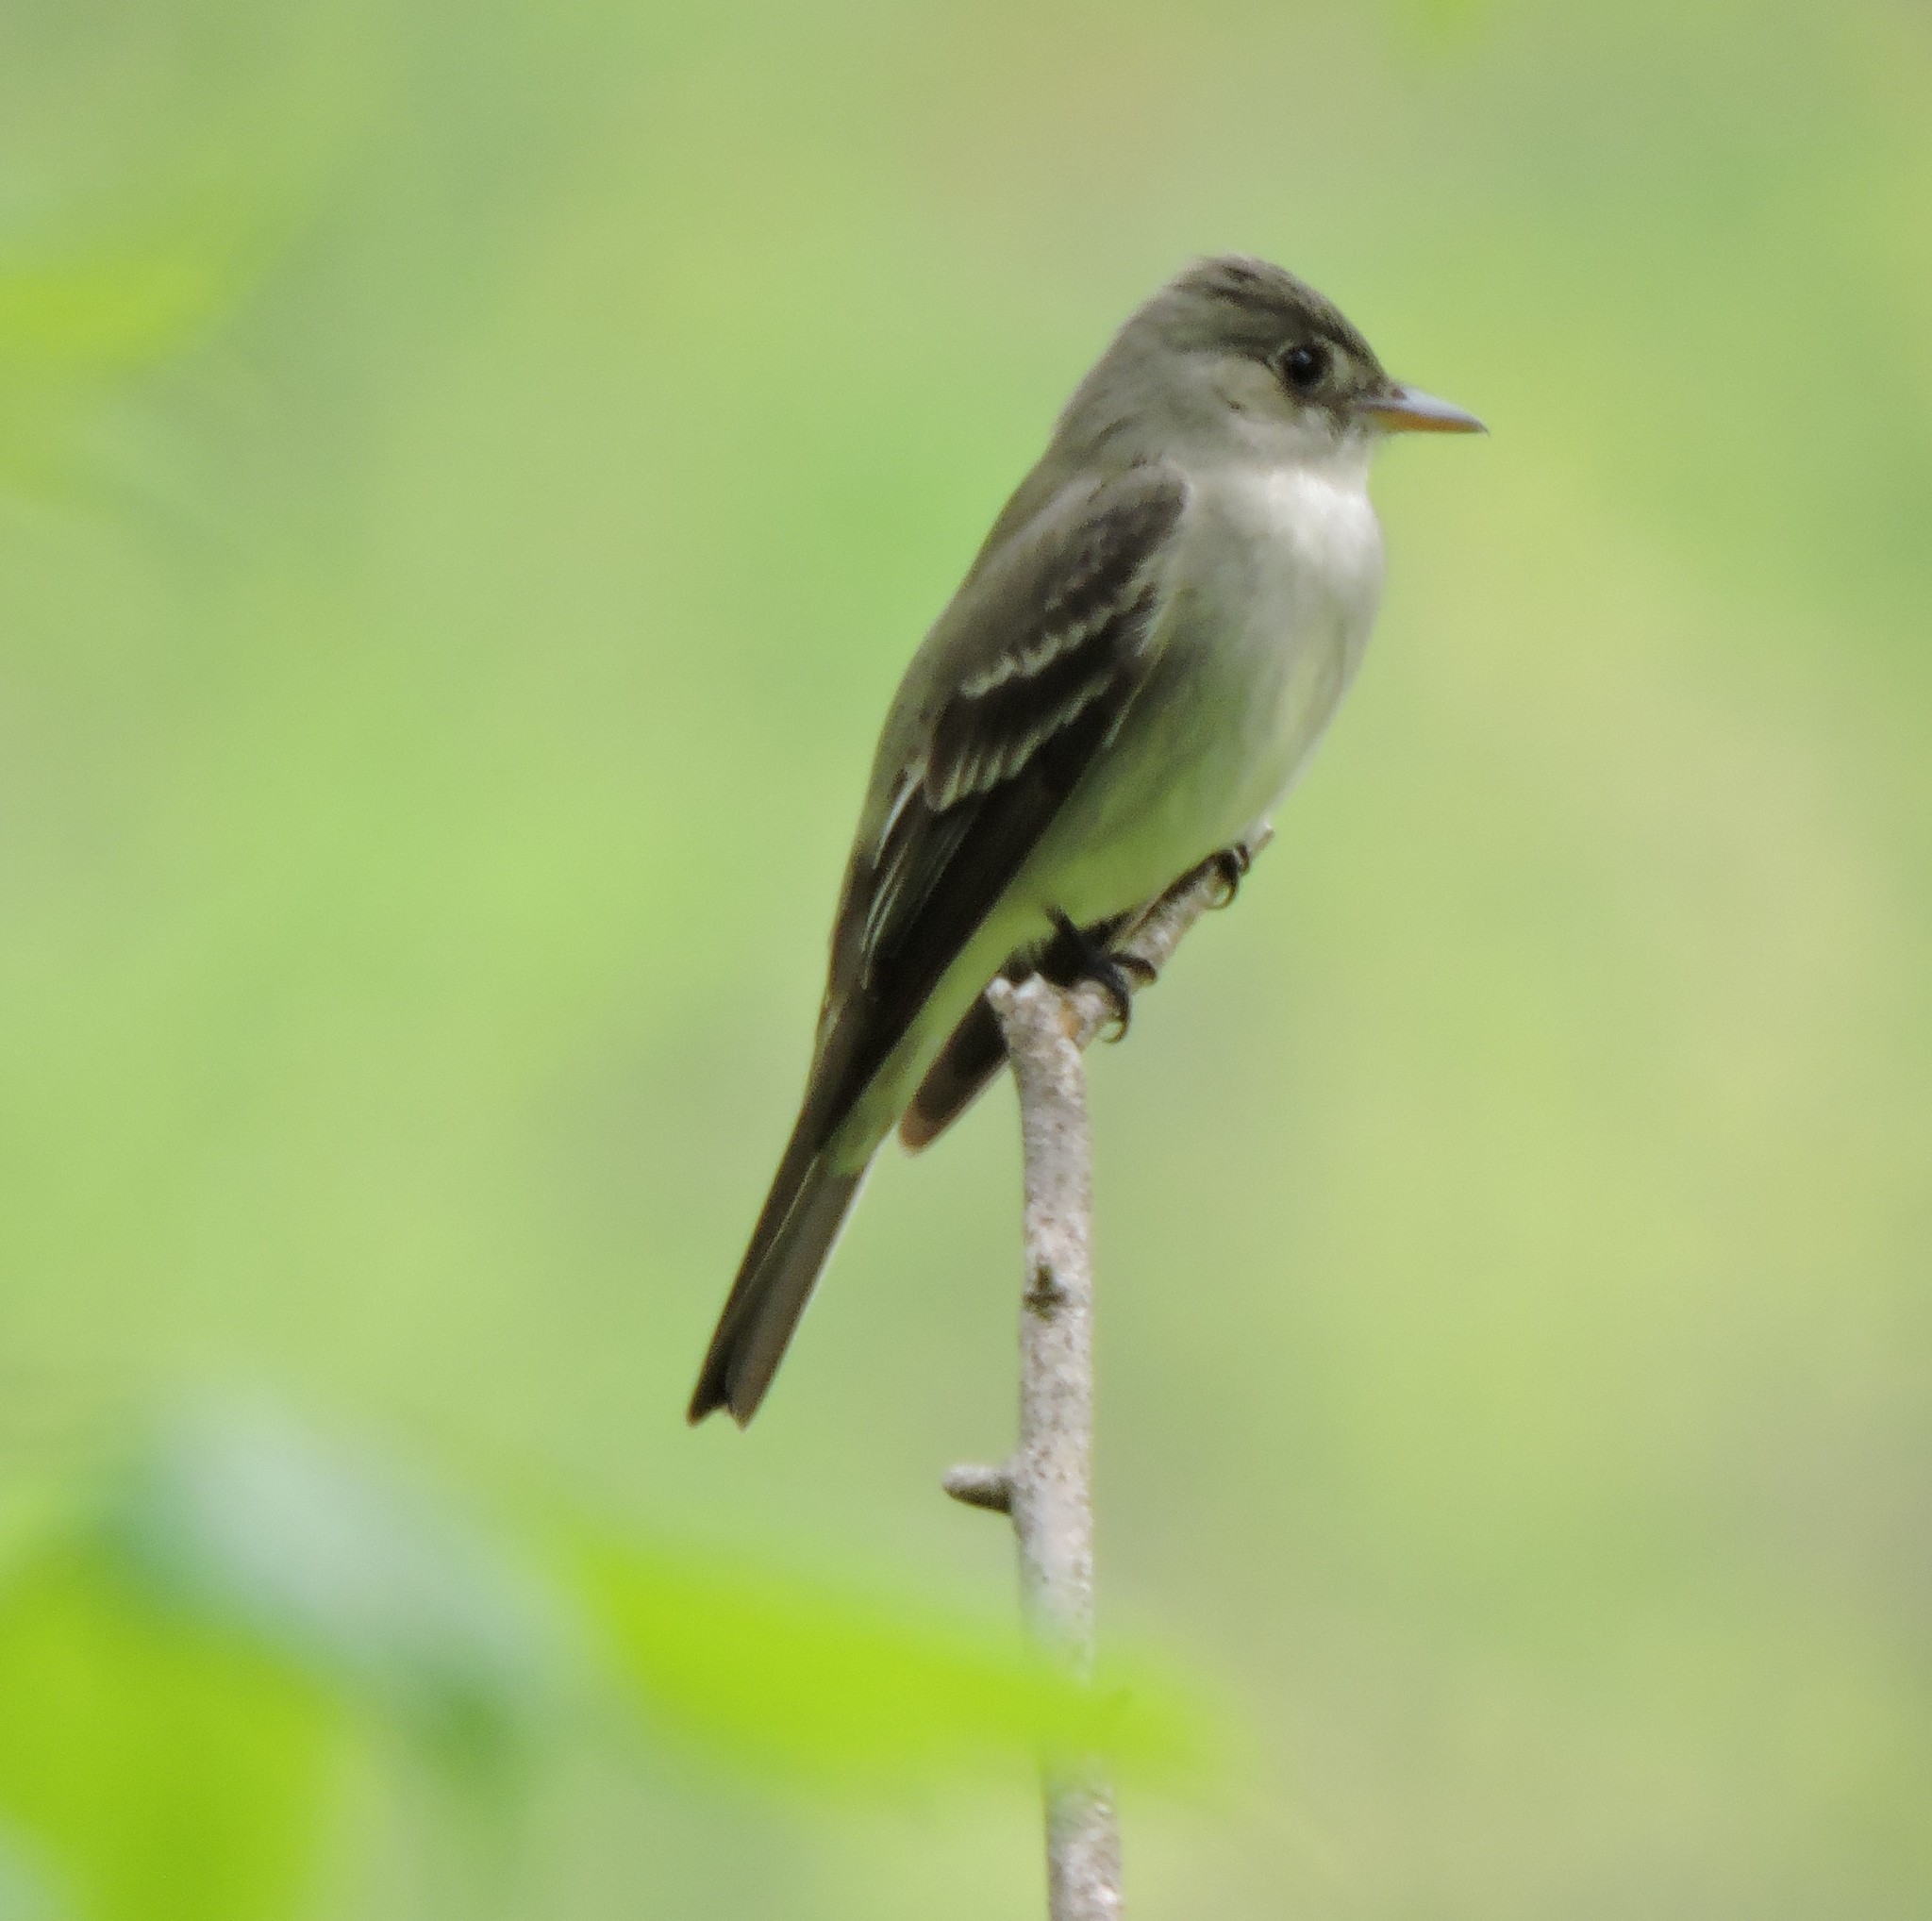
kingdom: Animalia
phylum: Chordata
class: Aves
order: Passeriformes
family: Tyrannidae
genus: Contopus
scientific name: Contopus virens
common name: Eastern wood-pewee
